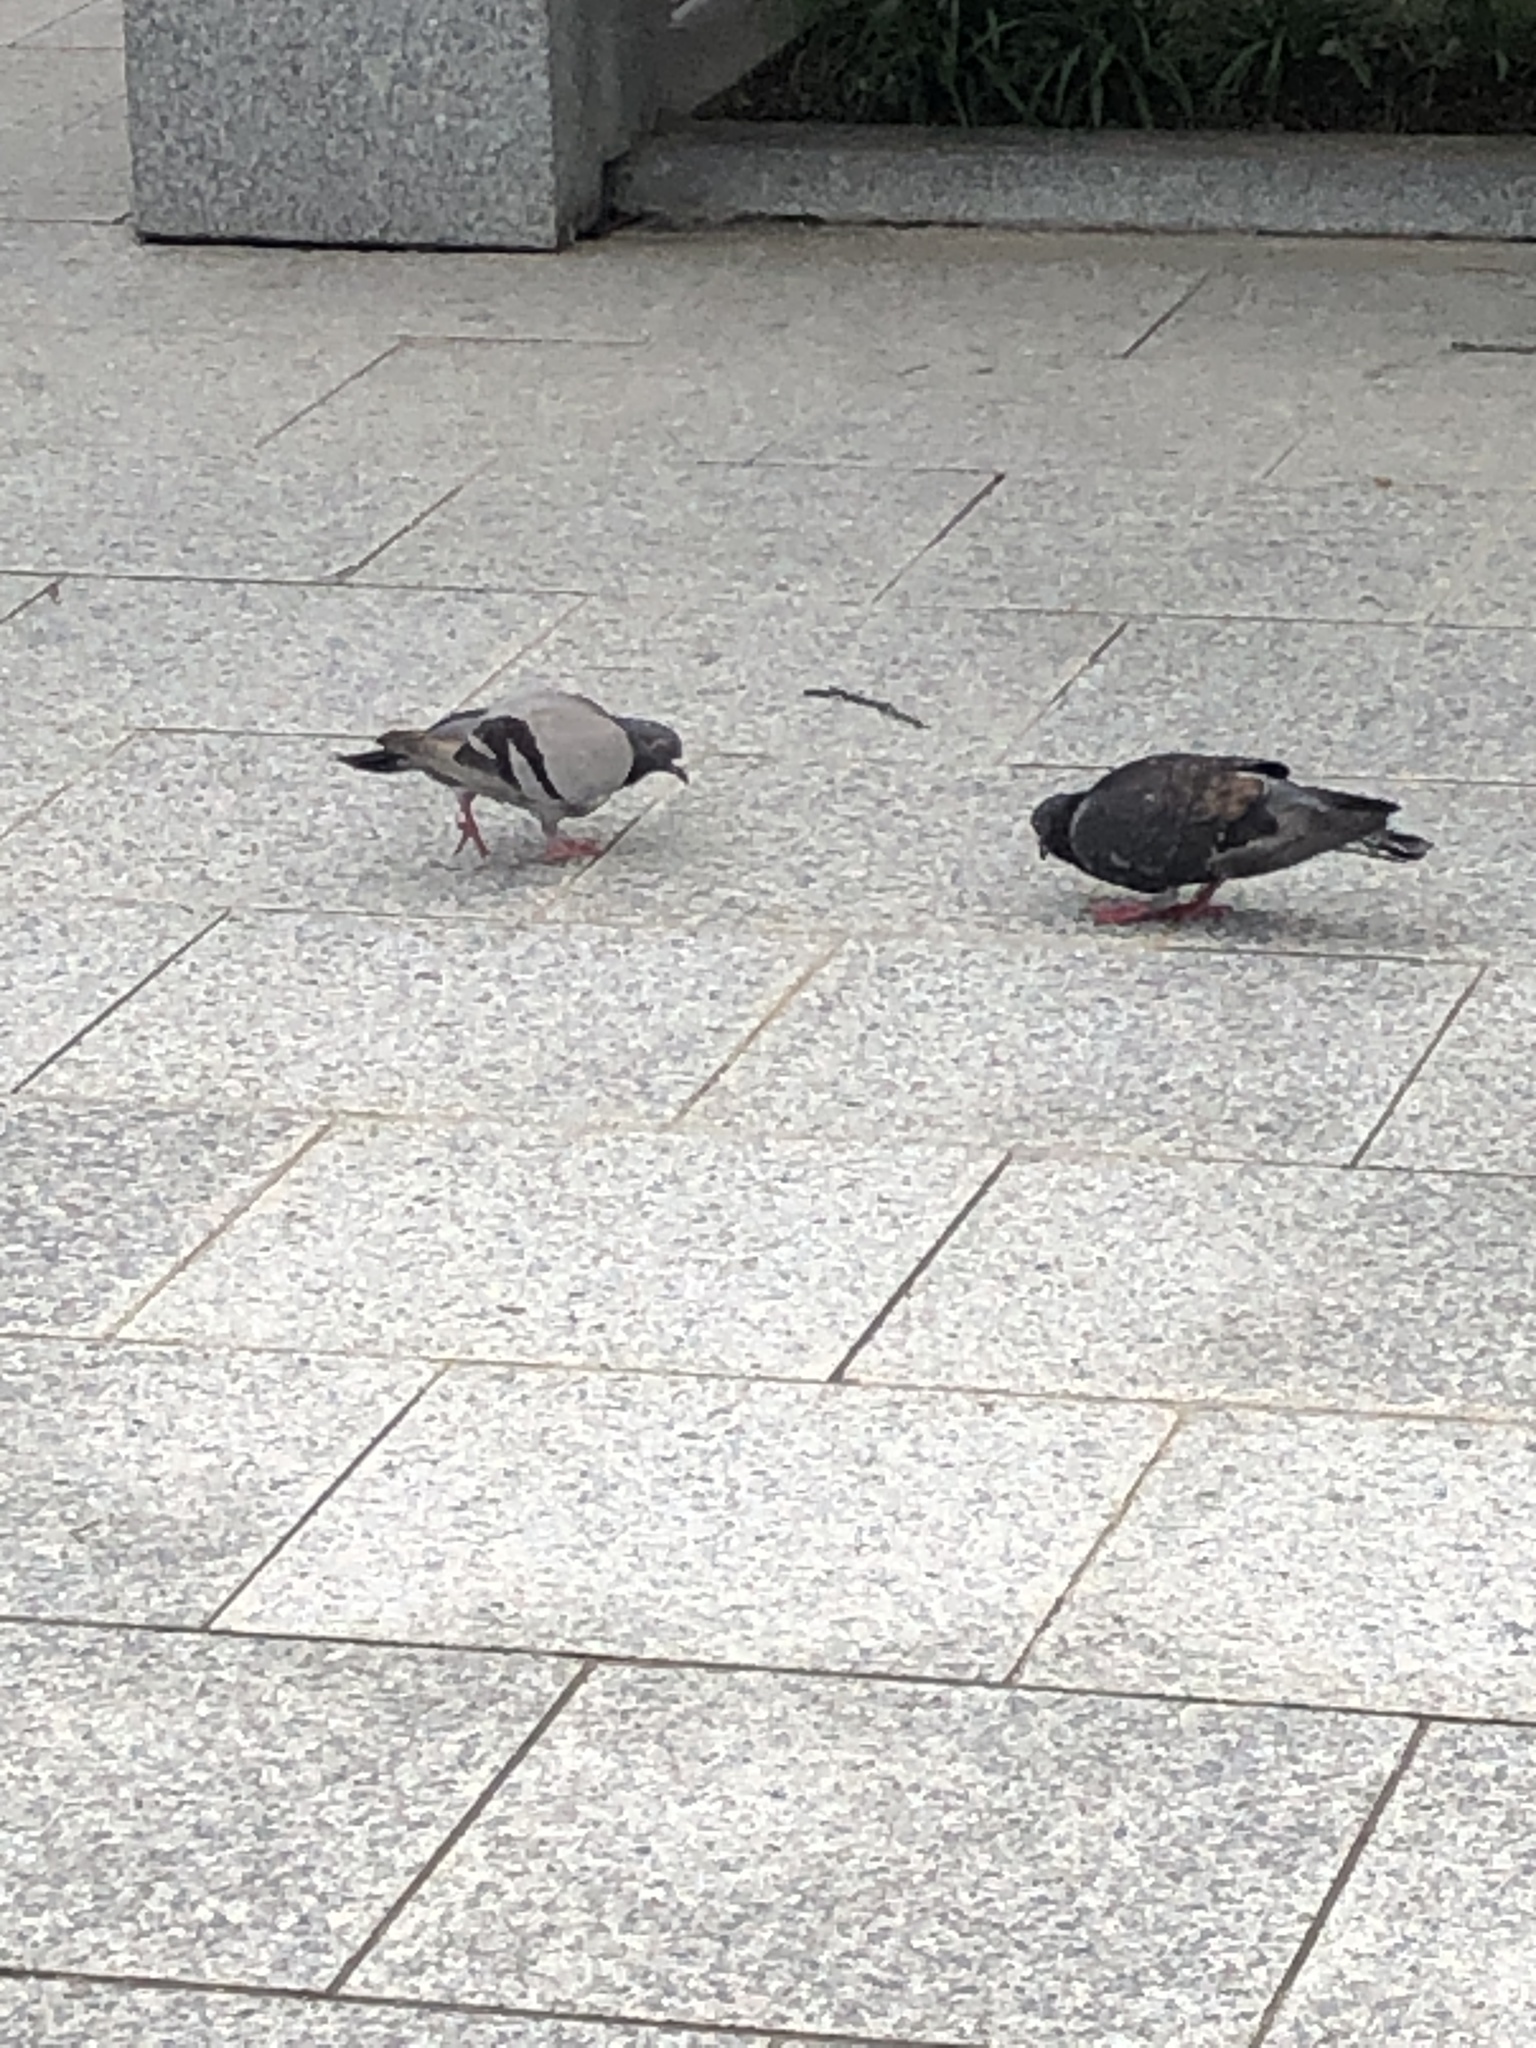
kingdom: Animalia
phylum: Chordata
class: Aves
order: Columbiformes
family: Columbidae
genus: Columba
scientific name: Columba livia
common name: Rock pigeon
